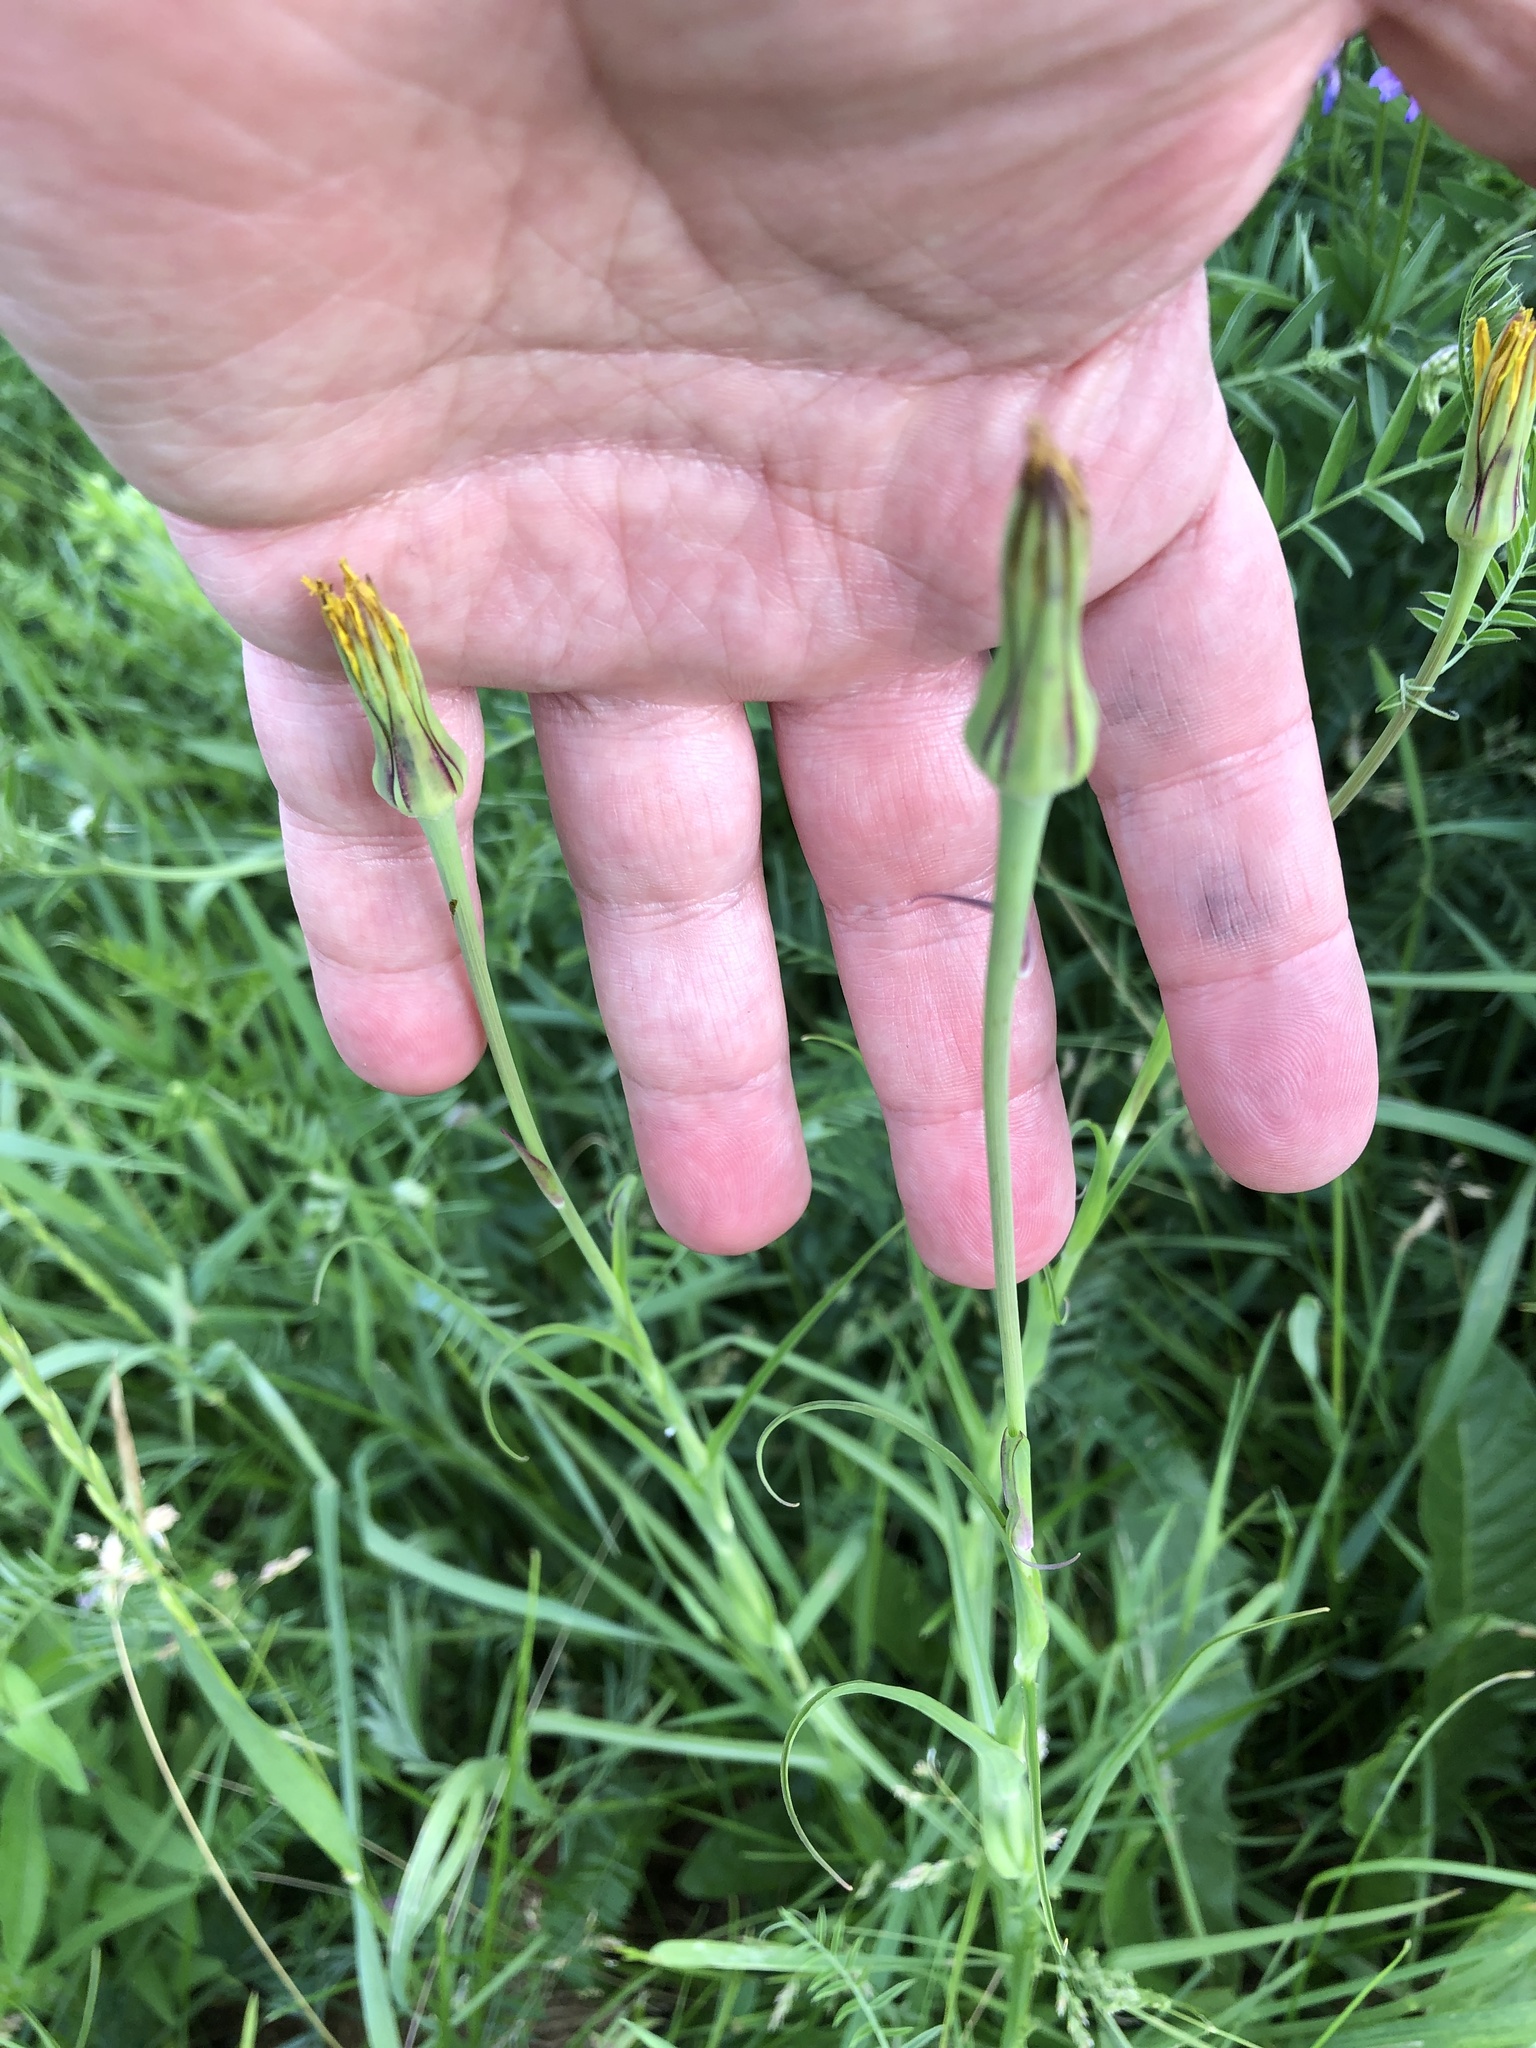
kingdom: Plantae
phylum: Tracheophyta
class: Magnoliopsida
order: Asterales
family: Asteraceae
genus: Tragopogon
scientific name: Tragopogon pratensis
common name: Goat's-beard
